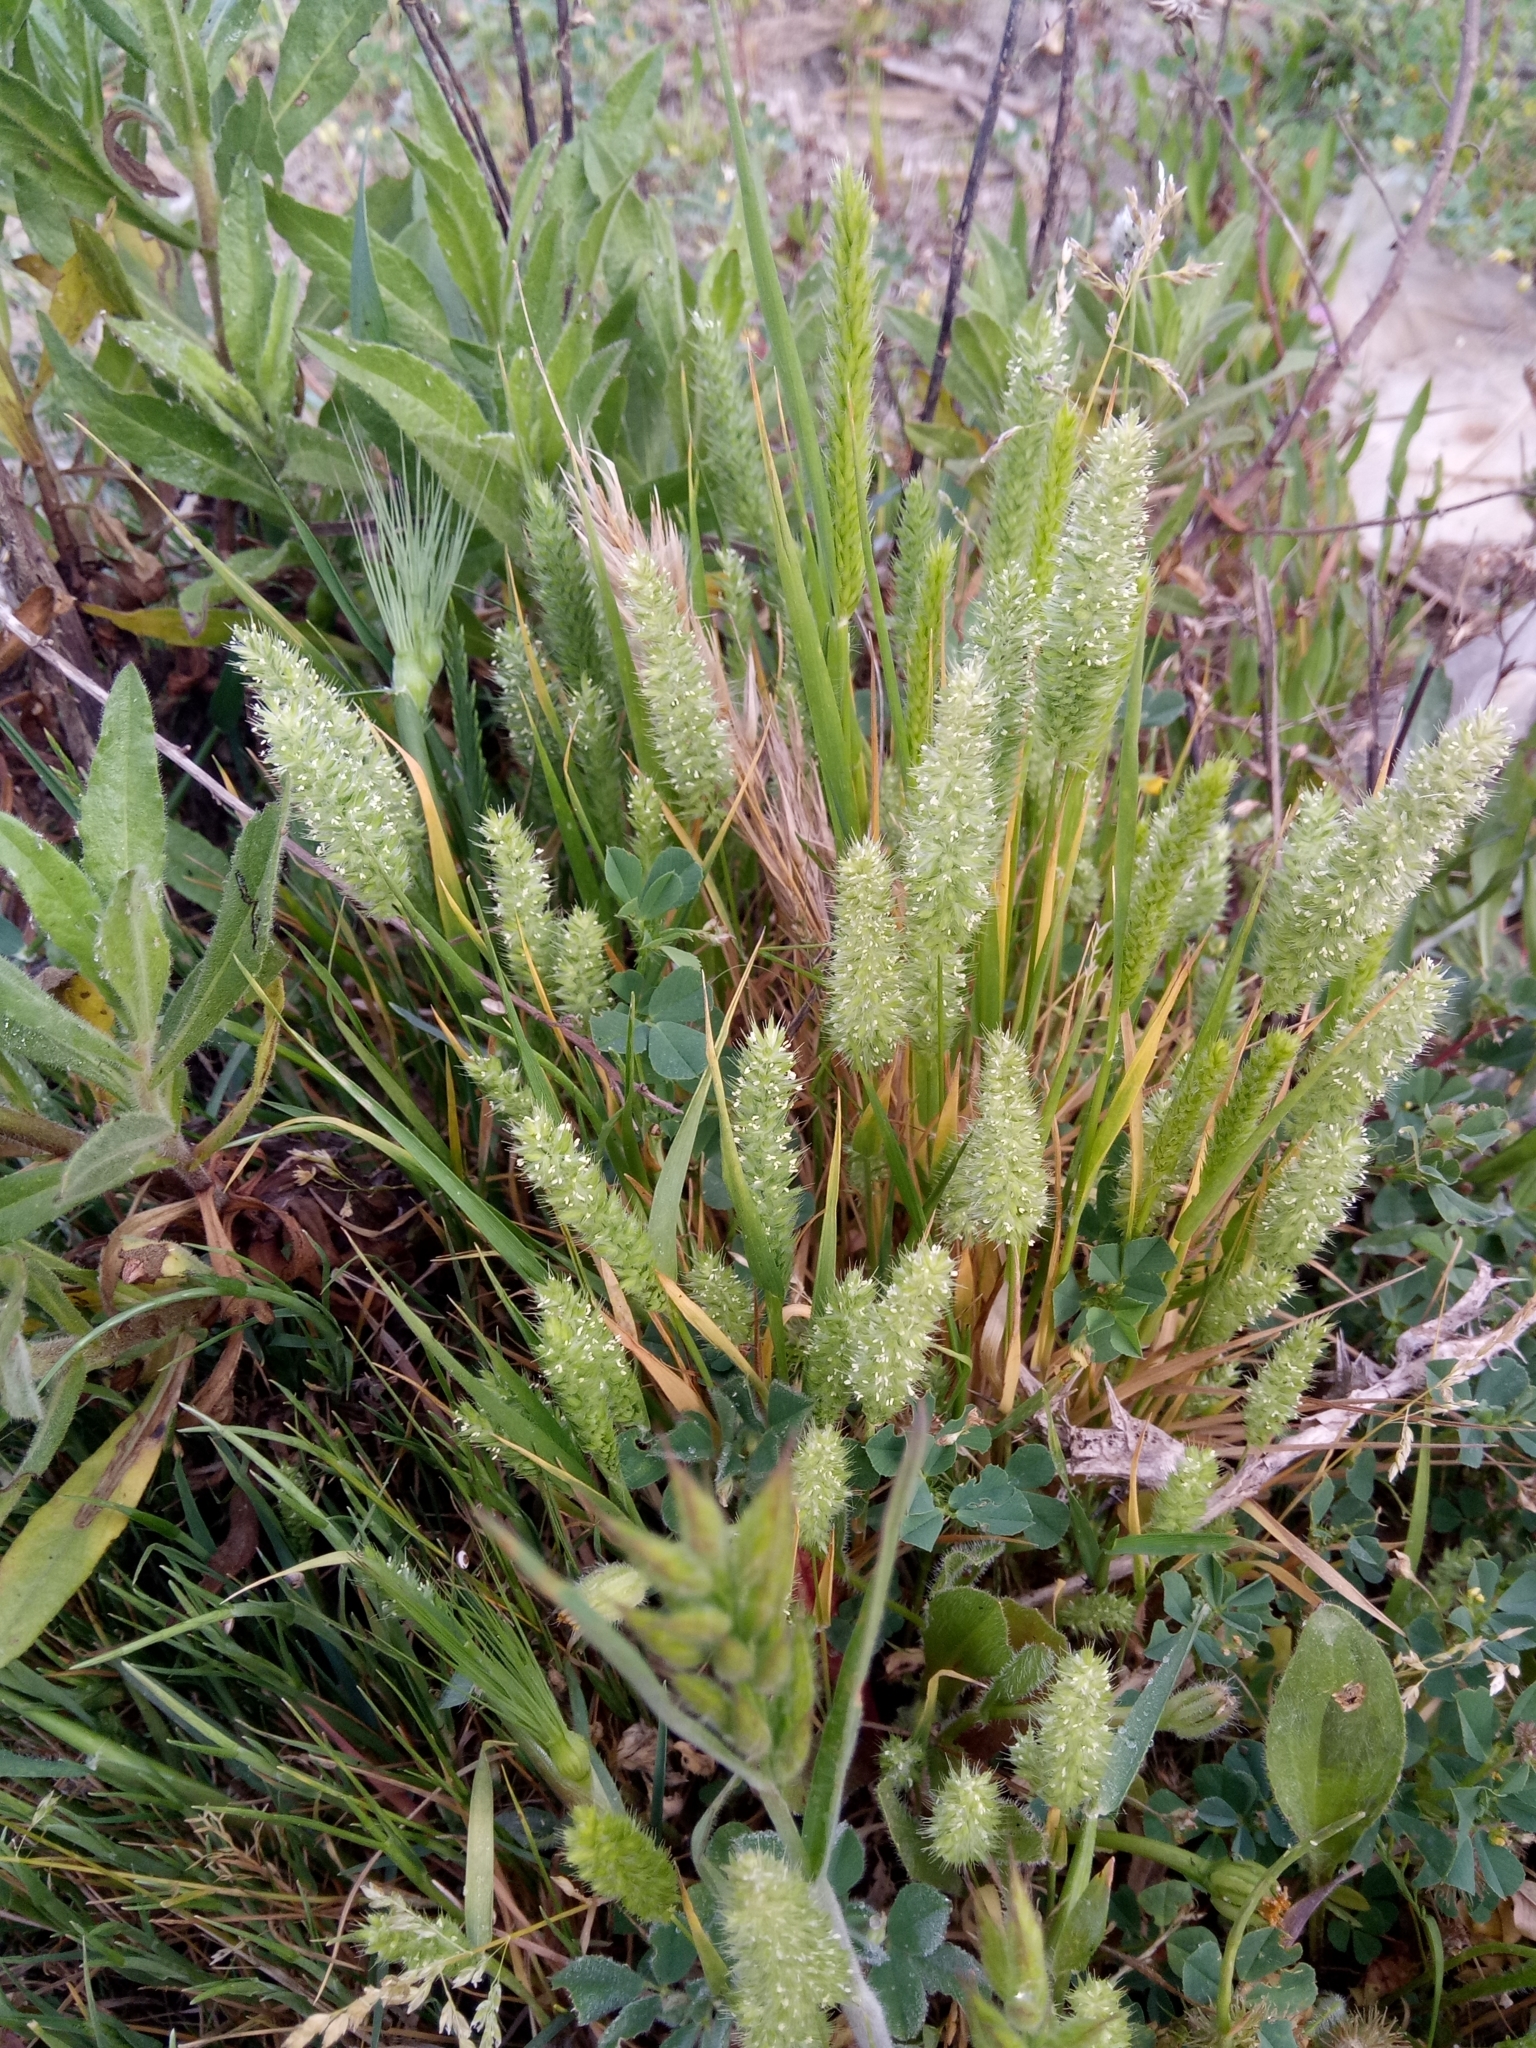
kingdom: Plantae
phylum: Tracheophyta
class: Liliopsida
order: Poales
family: Poaceae
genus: Rostraria
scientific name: Rostraria cristata
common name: Mediterranean hair-grass
